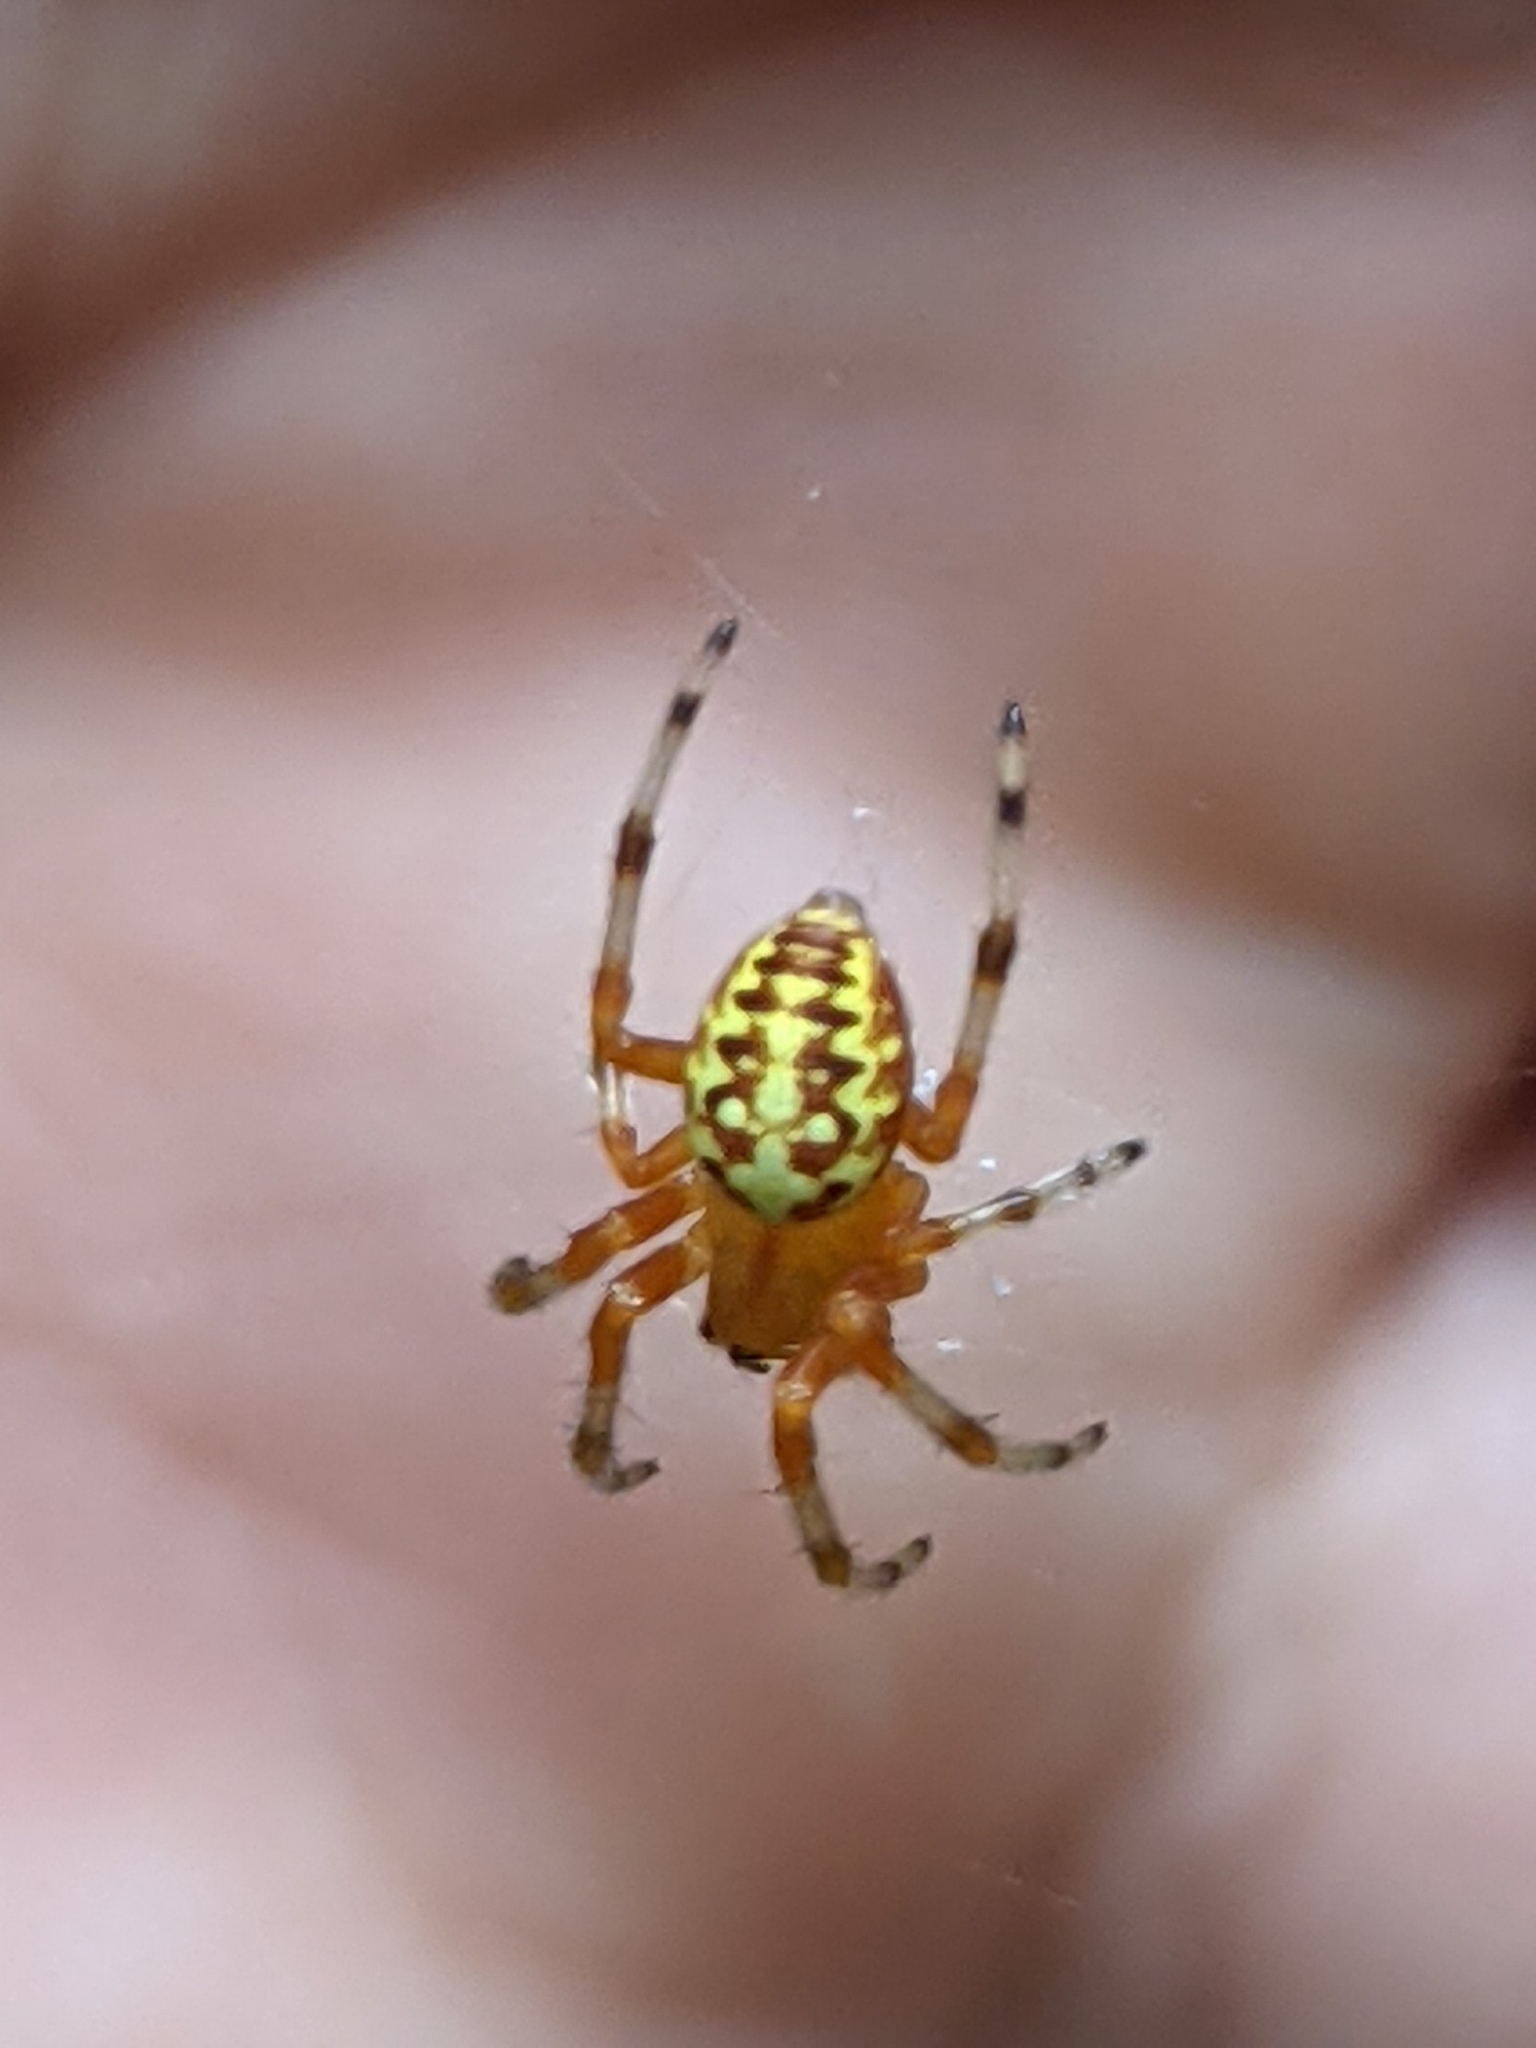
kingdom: Animalia
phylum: Arthropoda
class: Arachnida
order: Araneae
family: Araneidae
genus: Araneus
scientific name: Araneus marmoreus
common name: Marbled orbweaver
